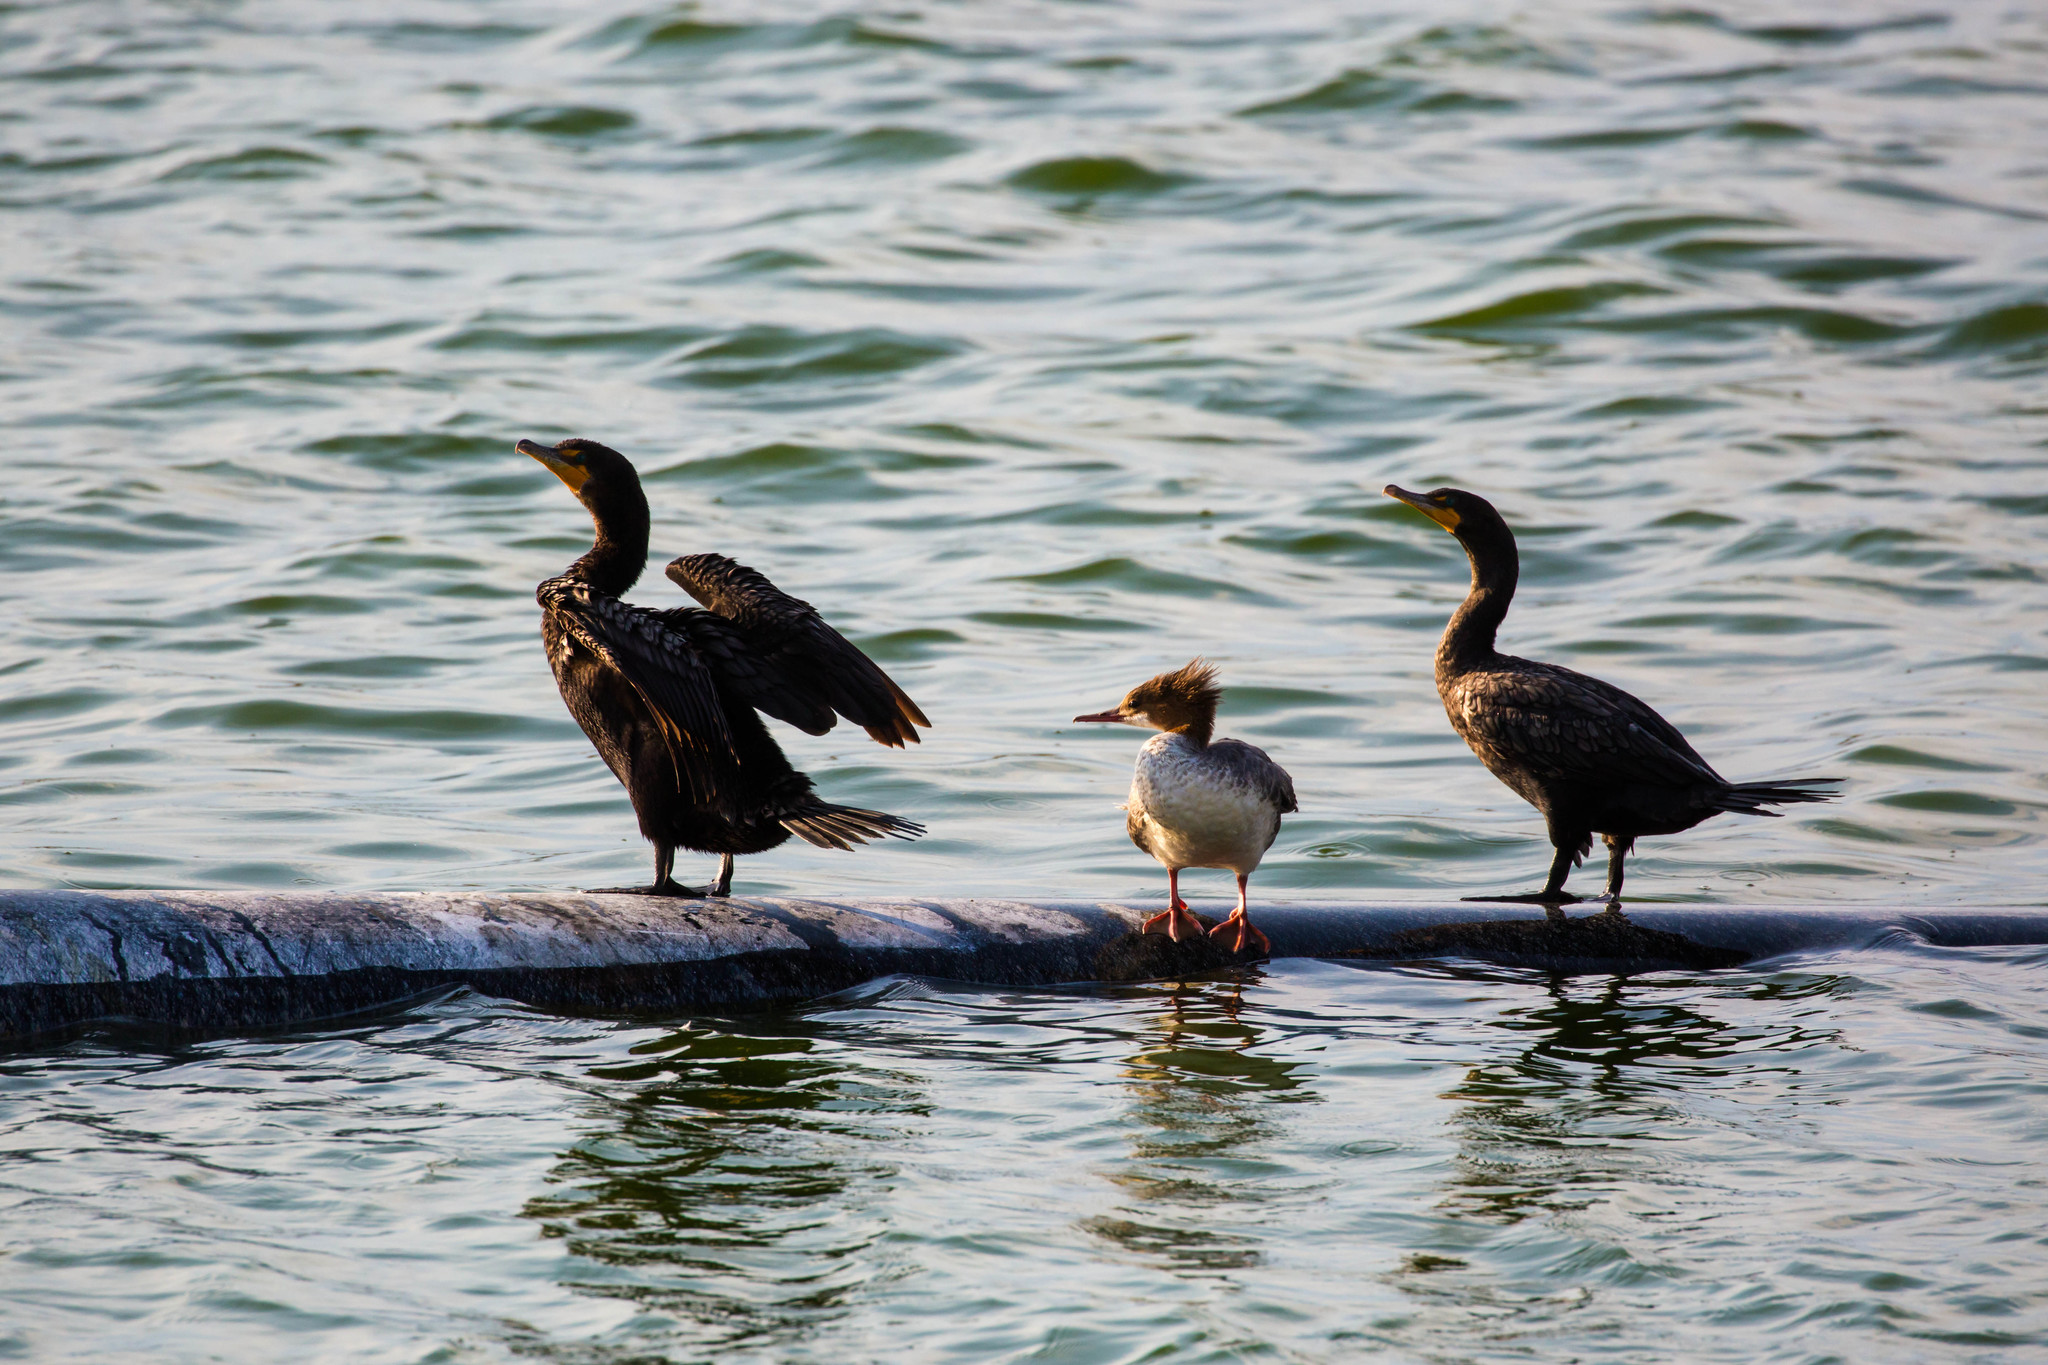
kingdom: Animalia
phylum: Chordata
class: Aves
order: Suliformes
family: Phalacrocoracidae
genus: Phalacrocorax
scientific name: Phalacrocorax auritus
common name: Double-crested cormorant
